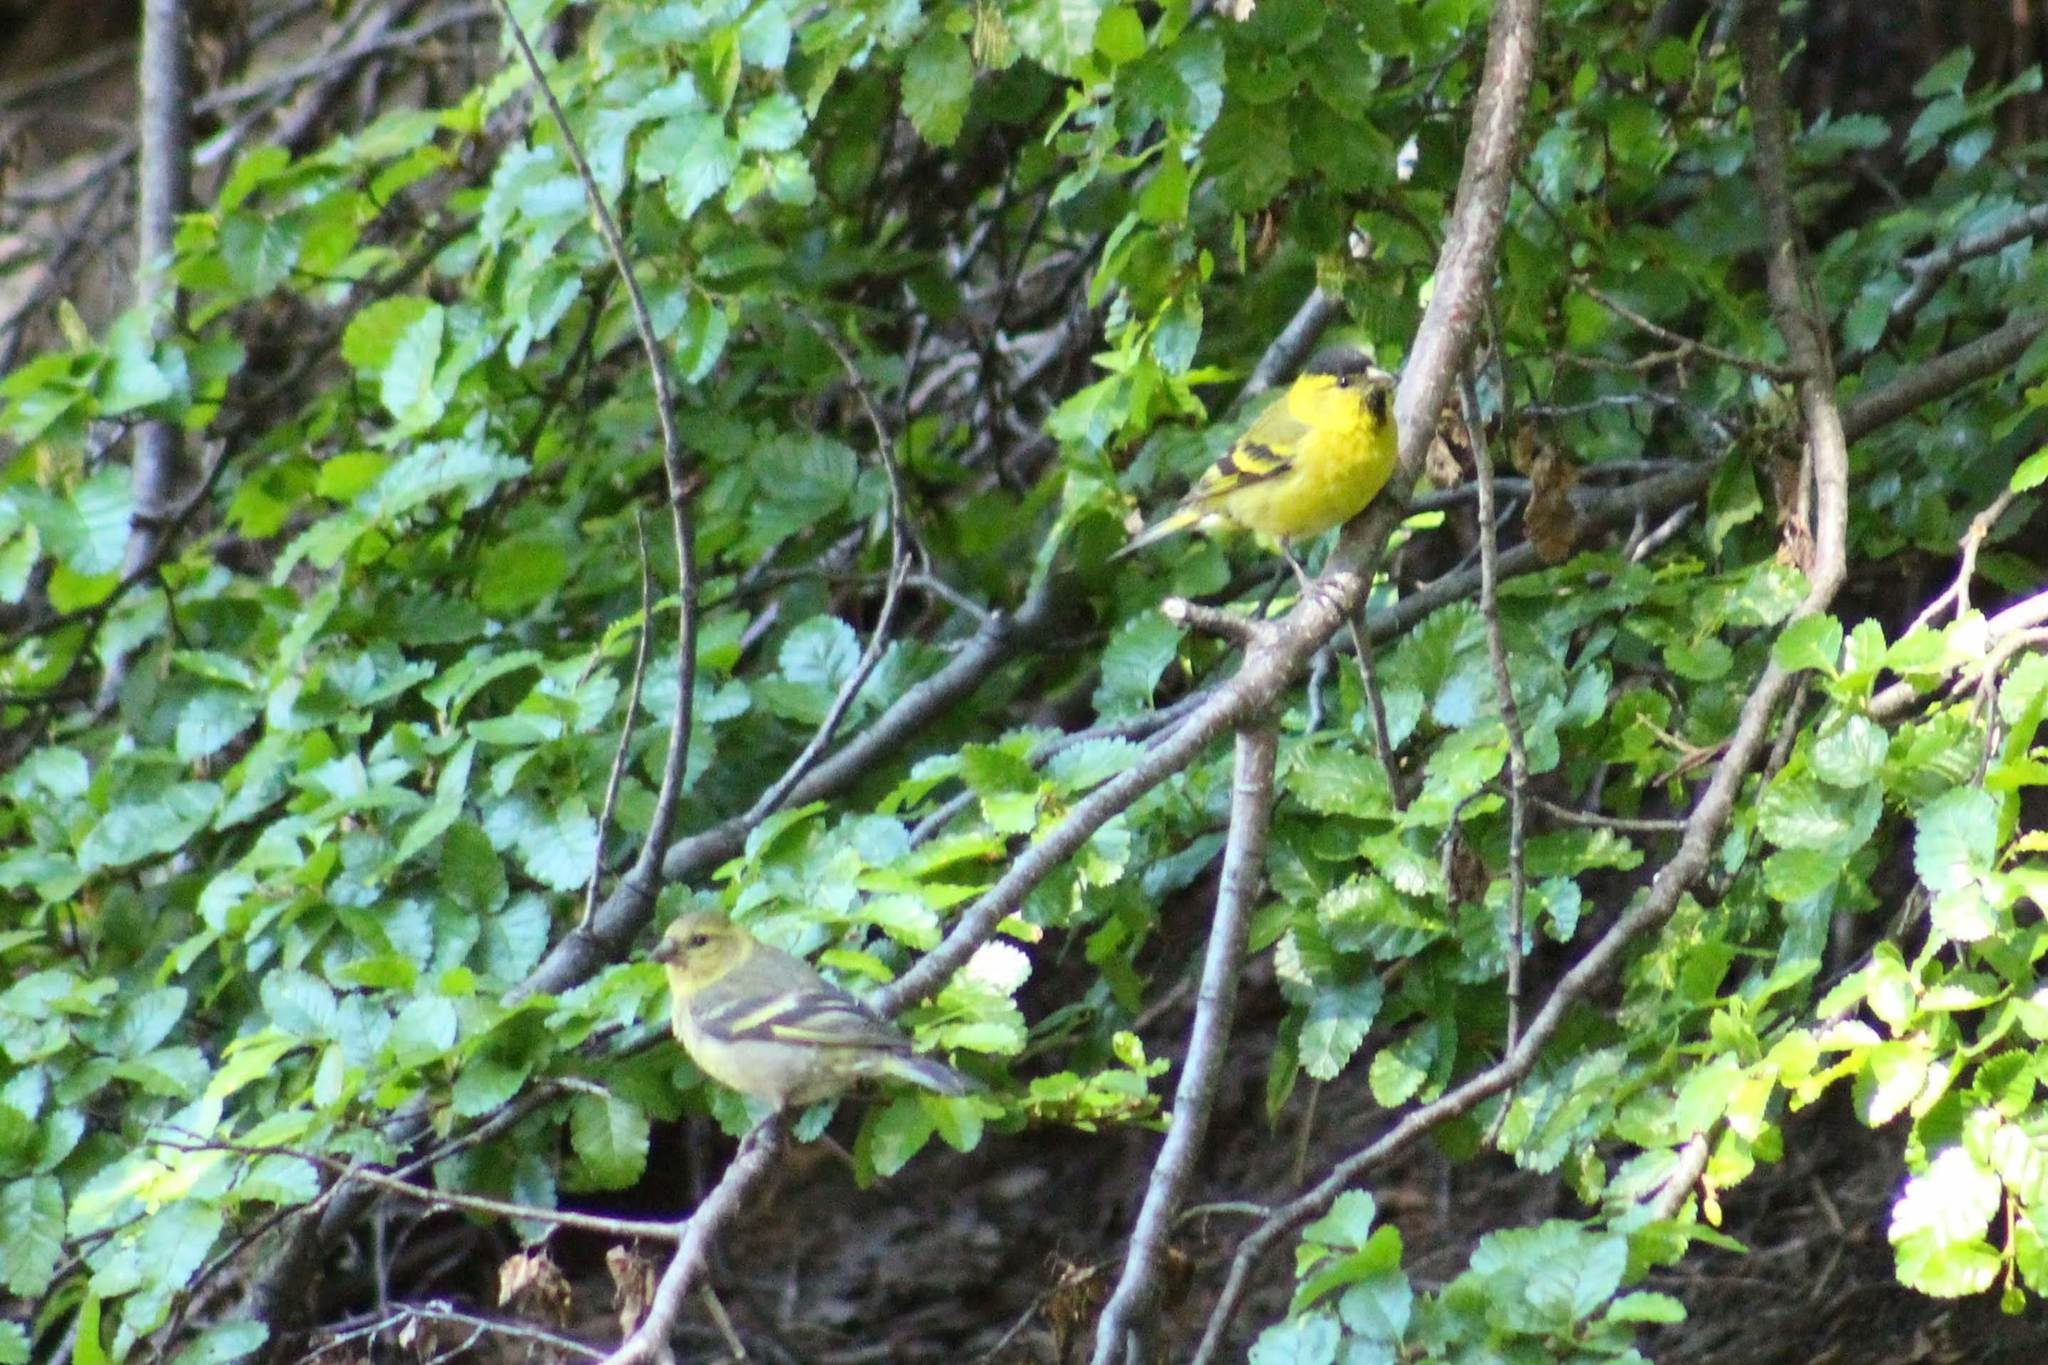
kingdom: Animalia
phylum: Chordata
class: Aves
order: Passeriformes
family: Fringillidae
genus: Spinus
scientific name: Spinus barbatus
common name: Black-chinned siskin
